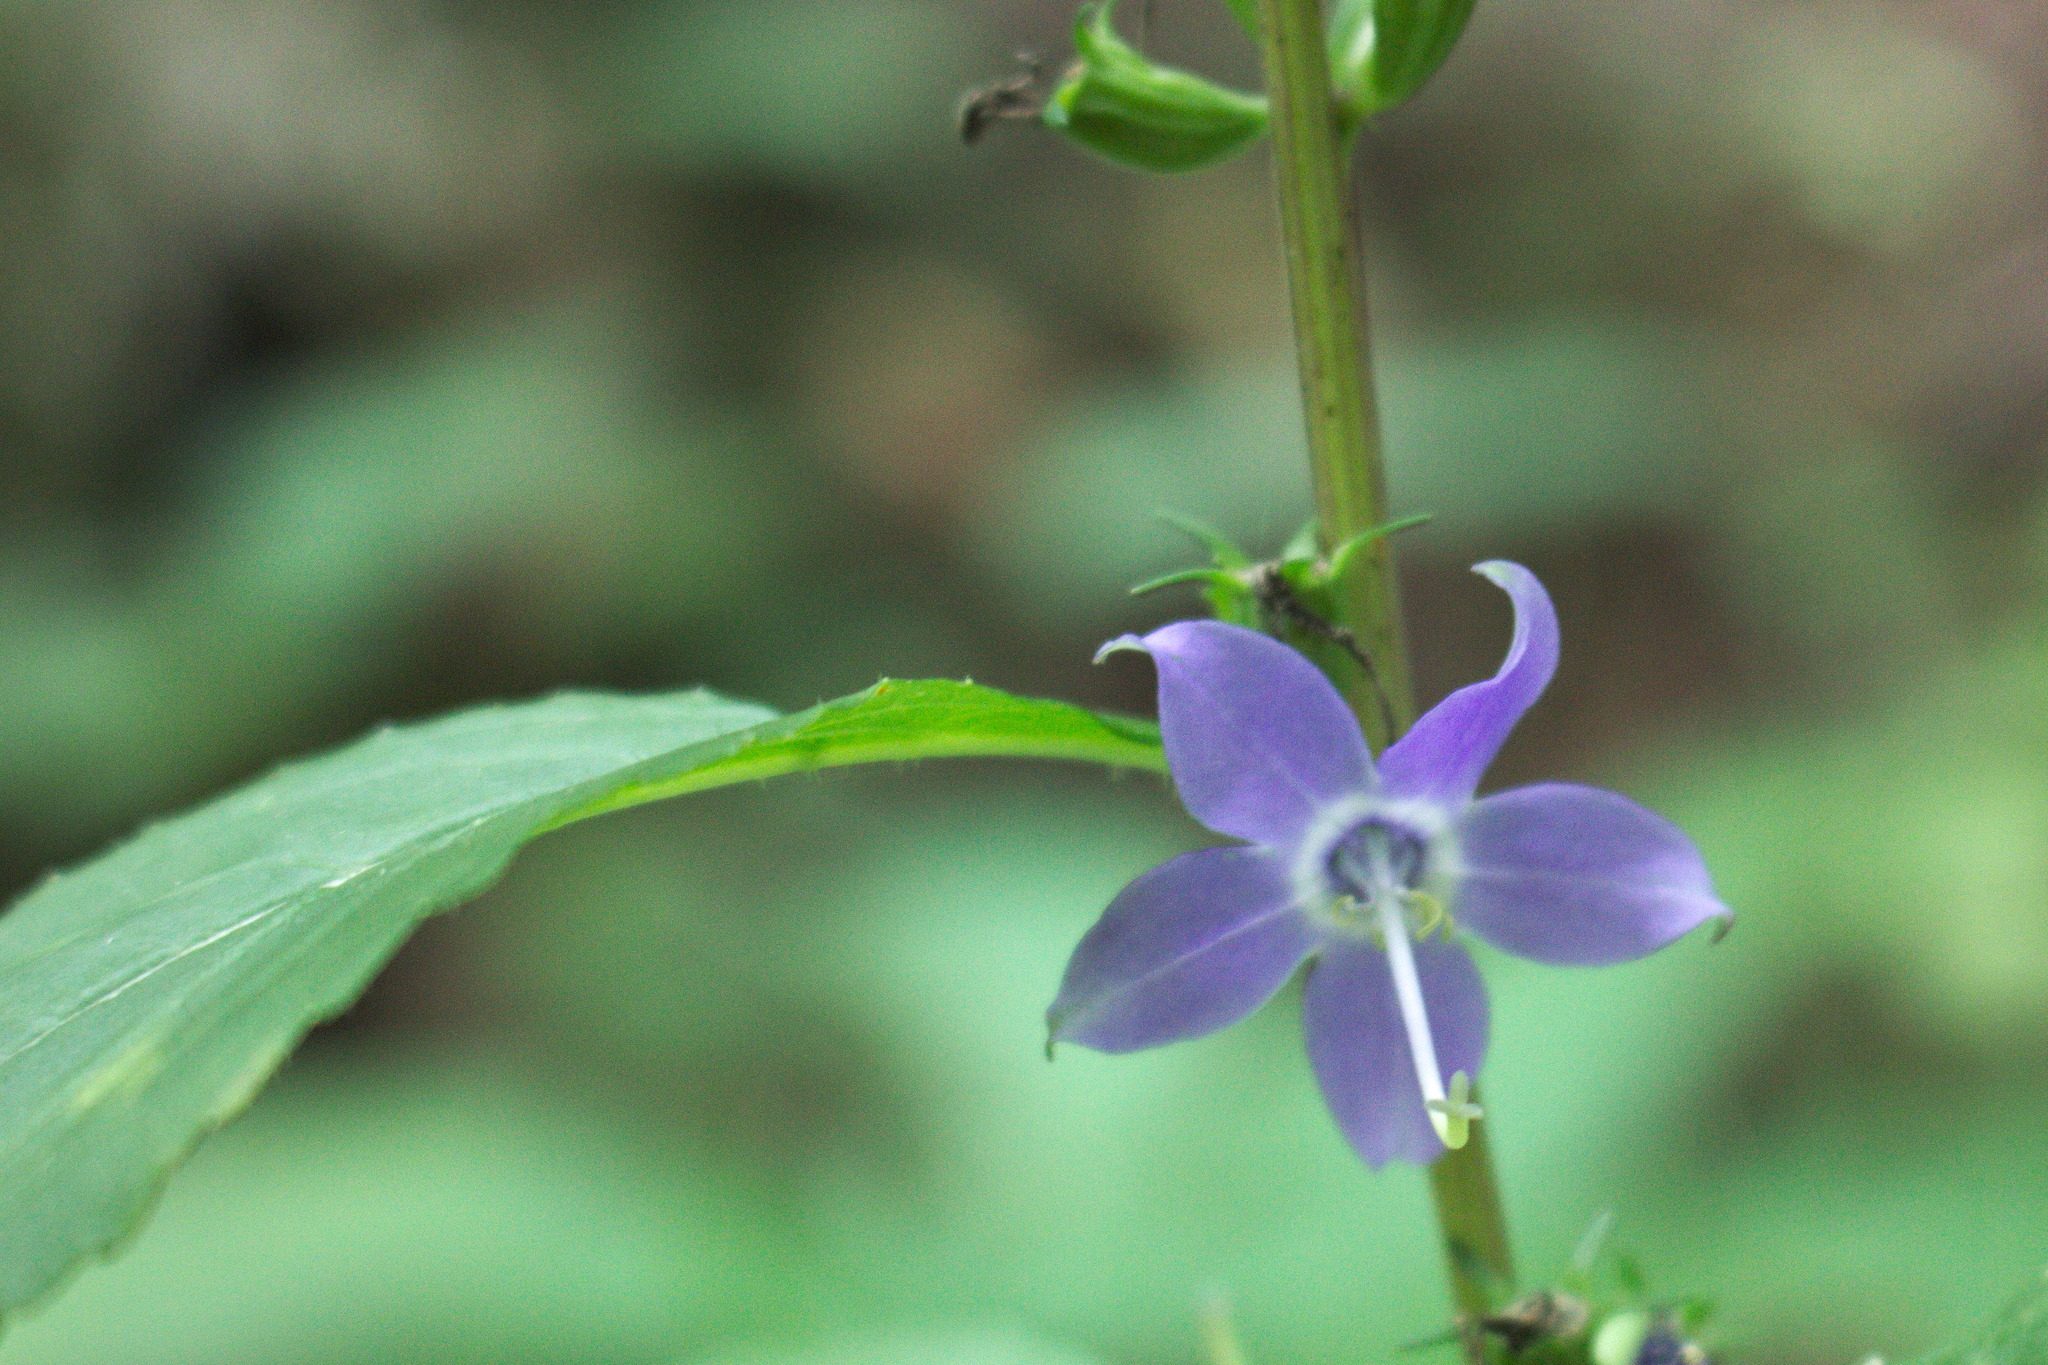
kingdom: Plantae
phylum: Tracheophyta
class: Magnoliopsida
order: Asterales
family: Campanulaceae
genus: Campanulastrum
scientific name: Campanulastrum americanum
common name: American bellflower
